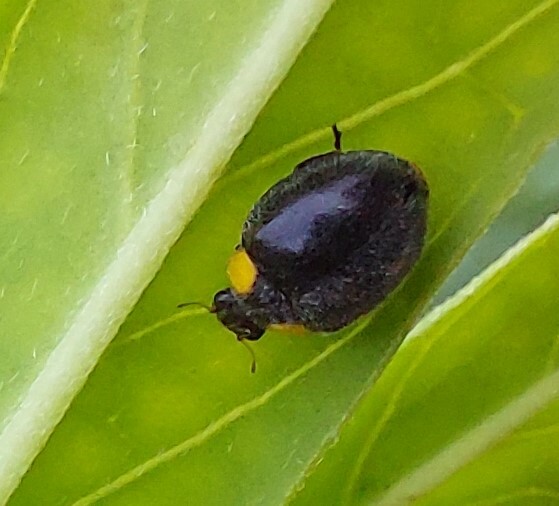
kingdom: Animalia
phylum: Arthropoda
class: Insecta
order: Coleoptera
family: Coccinellidae
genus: Scymnodes
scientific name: Scymnodes lividigaster
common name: Yellowshouldered lady beetle
